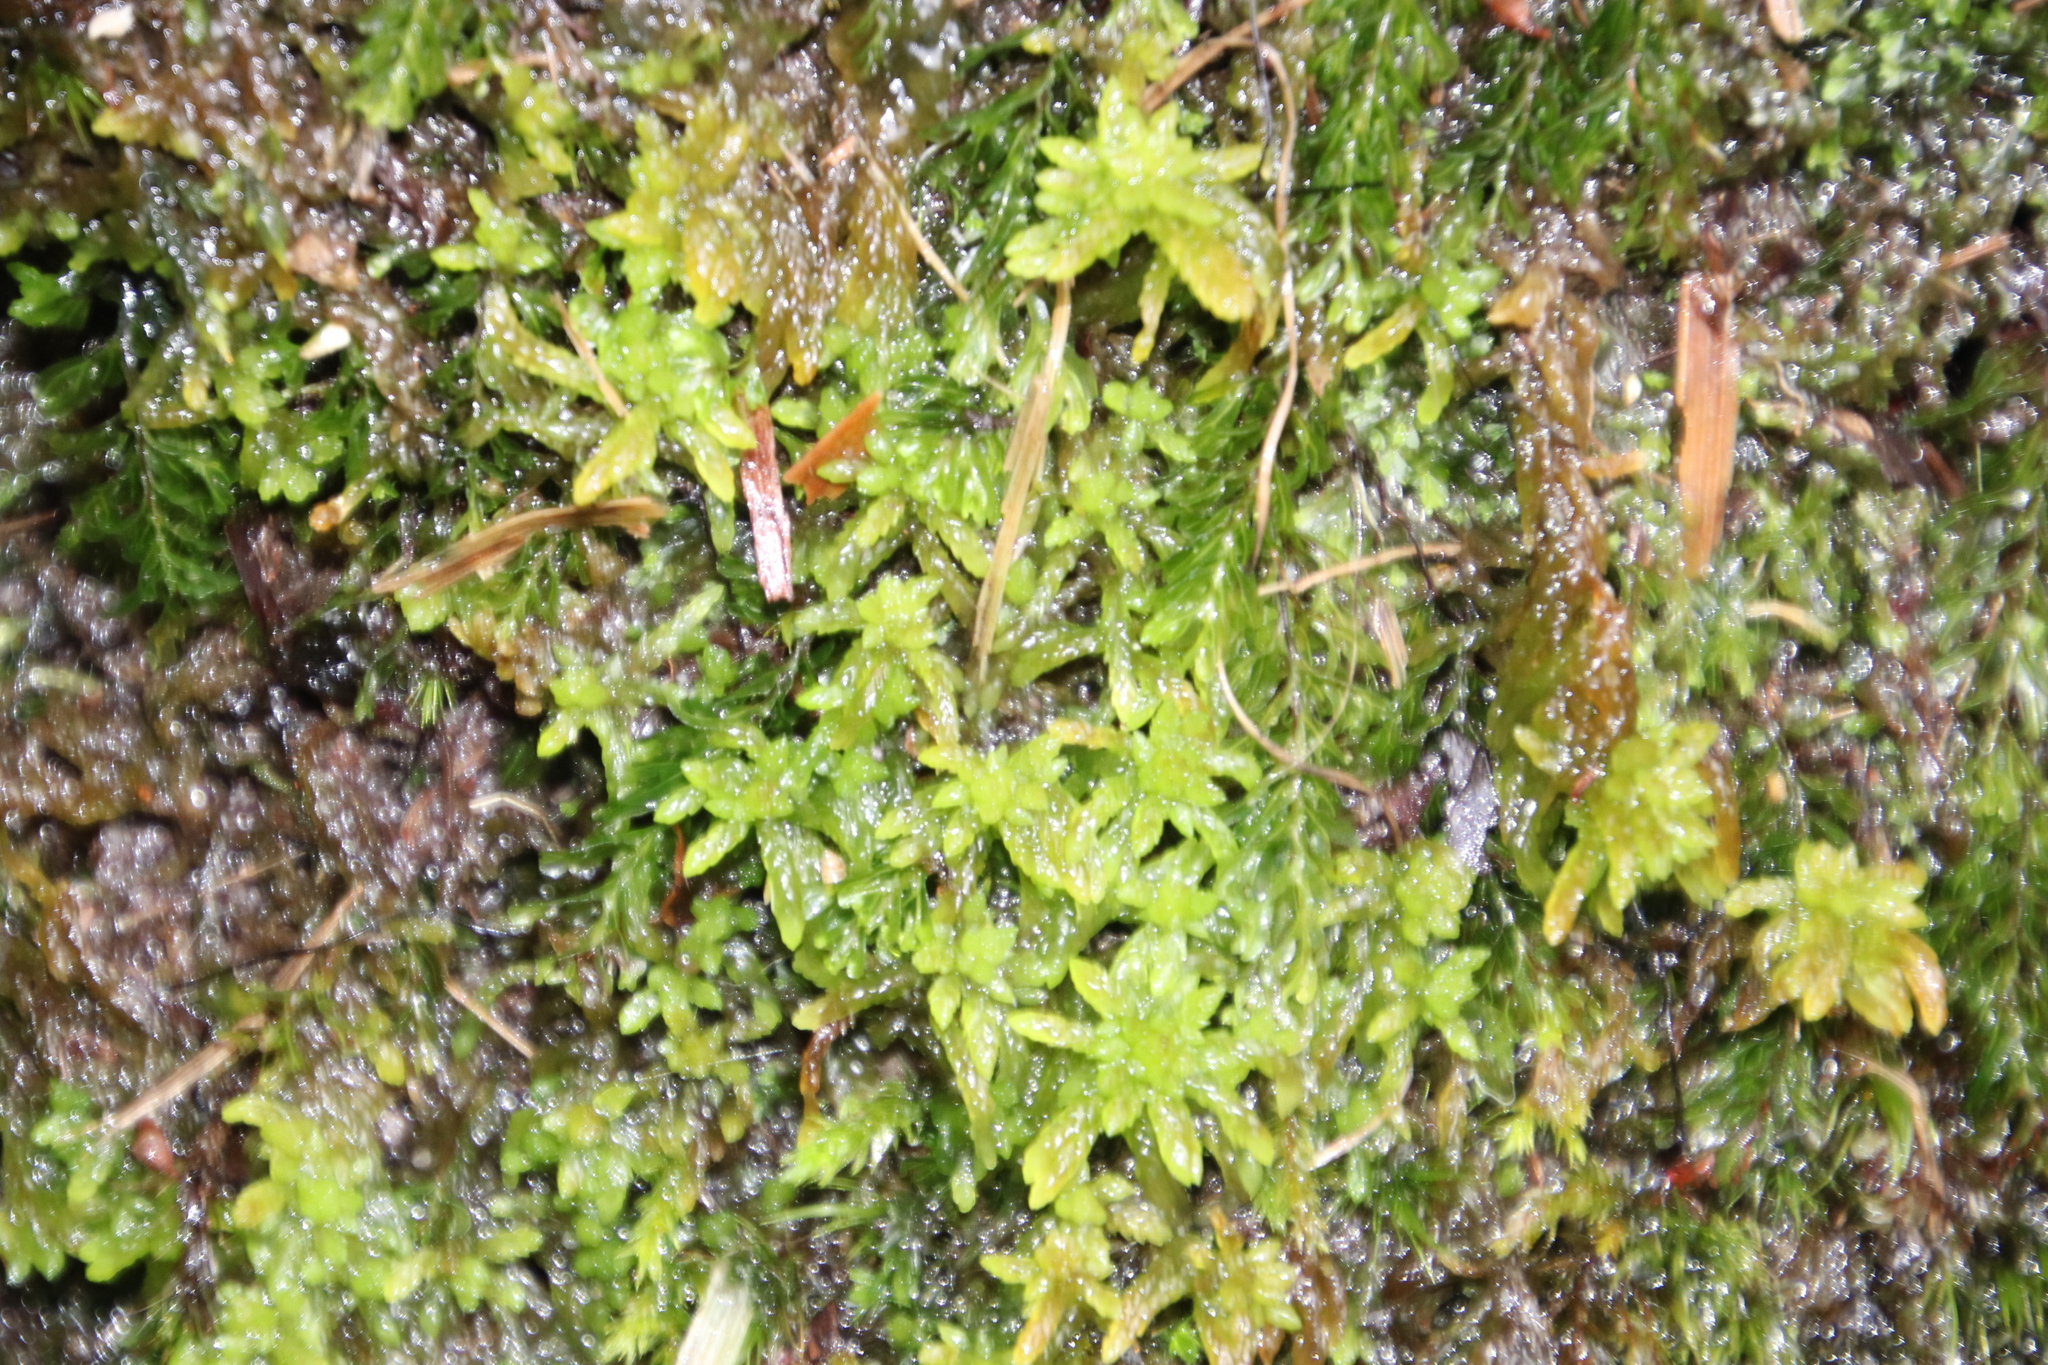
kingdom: Plantae
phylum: Tracheophyta
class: Polypodiopsida
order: Hymenophyllales
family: Hymenophyllaceae
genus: Hymenophyllum
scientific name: Hymenophyllum capense
